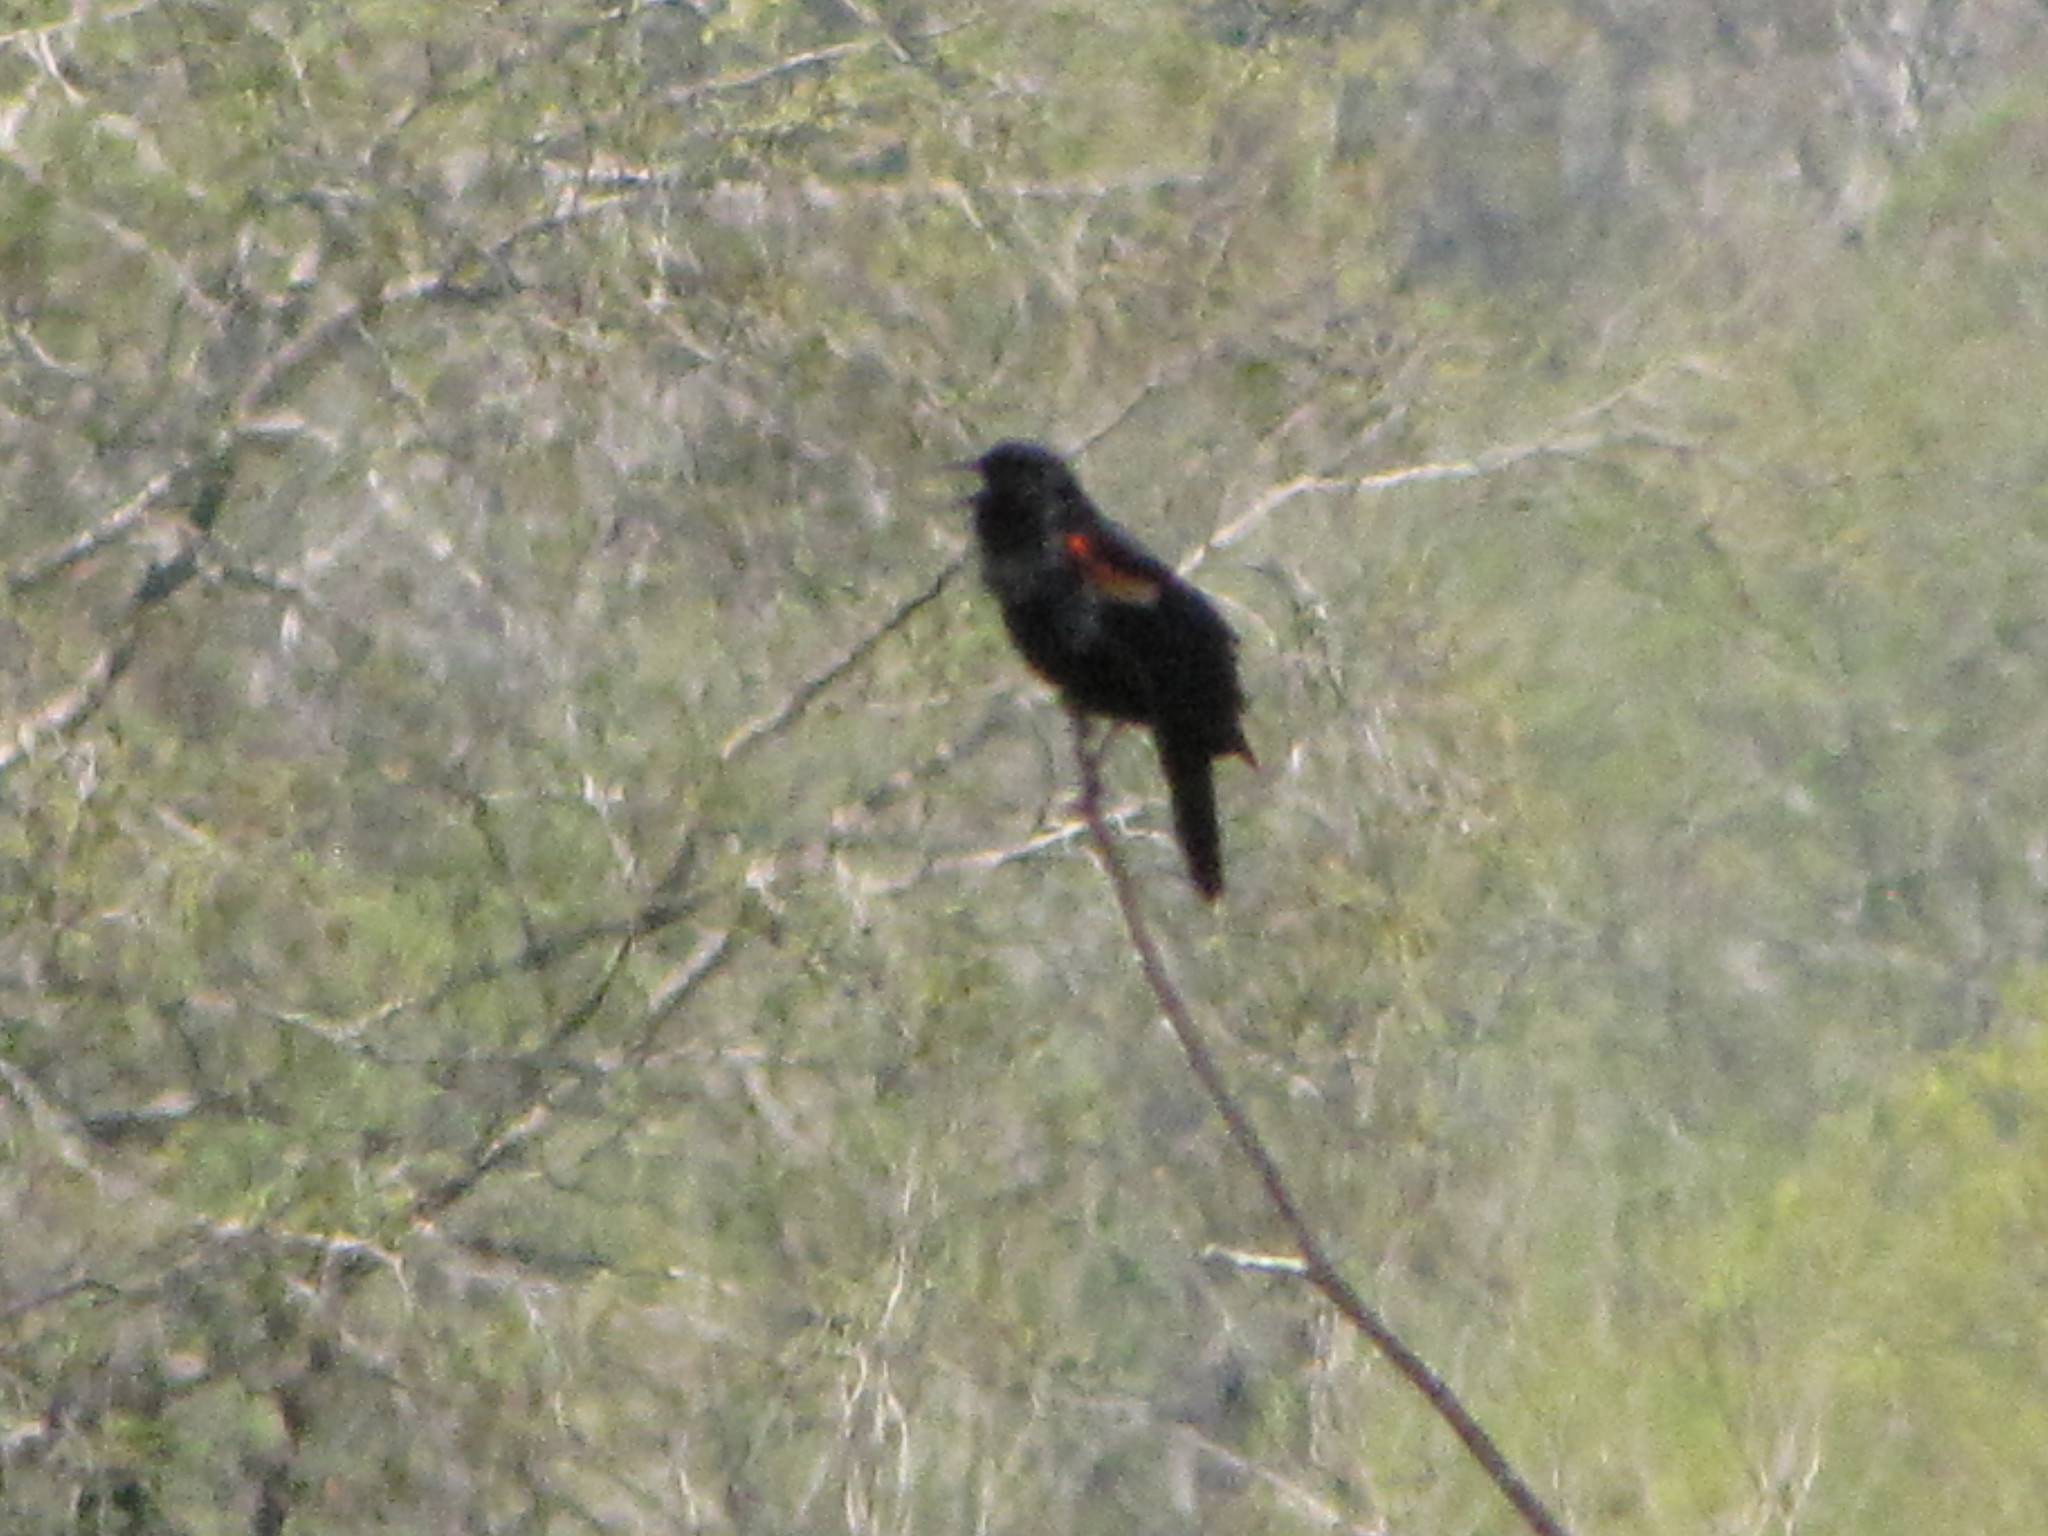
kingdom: Animalia
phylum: Chordata
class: Aves
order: Passeriformes
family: Icteridae
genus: Agelaius
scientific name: Agelaius phoeniceus
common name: Red-winged blackbird
